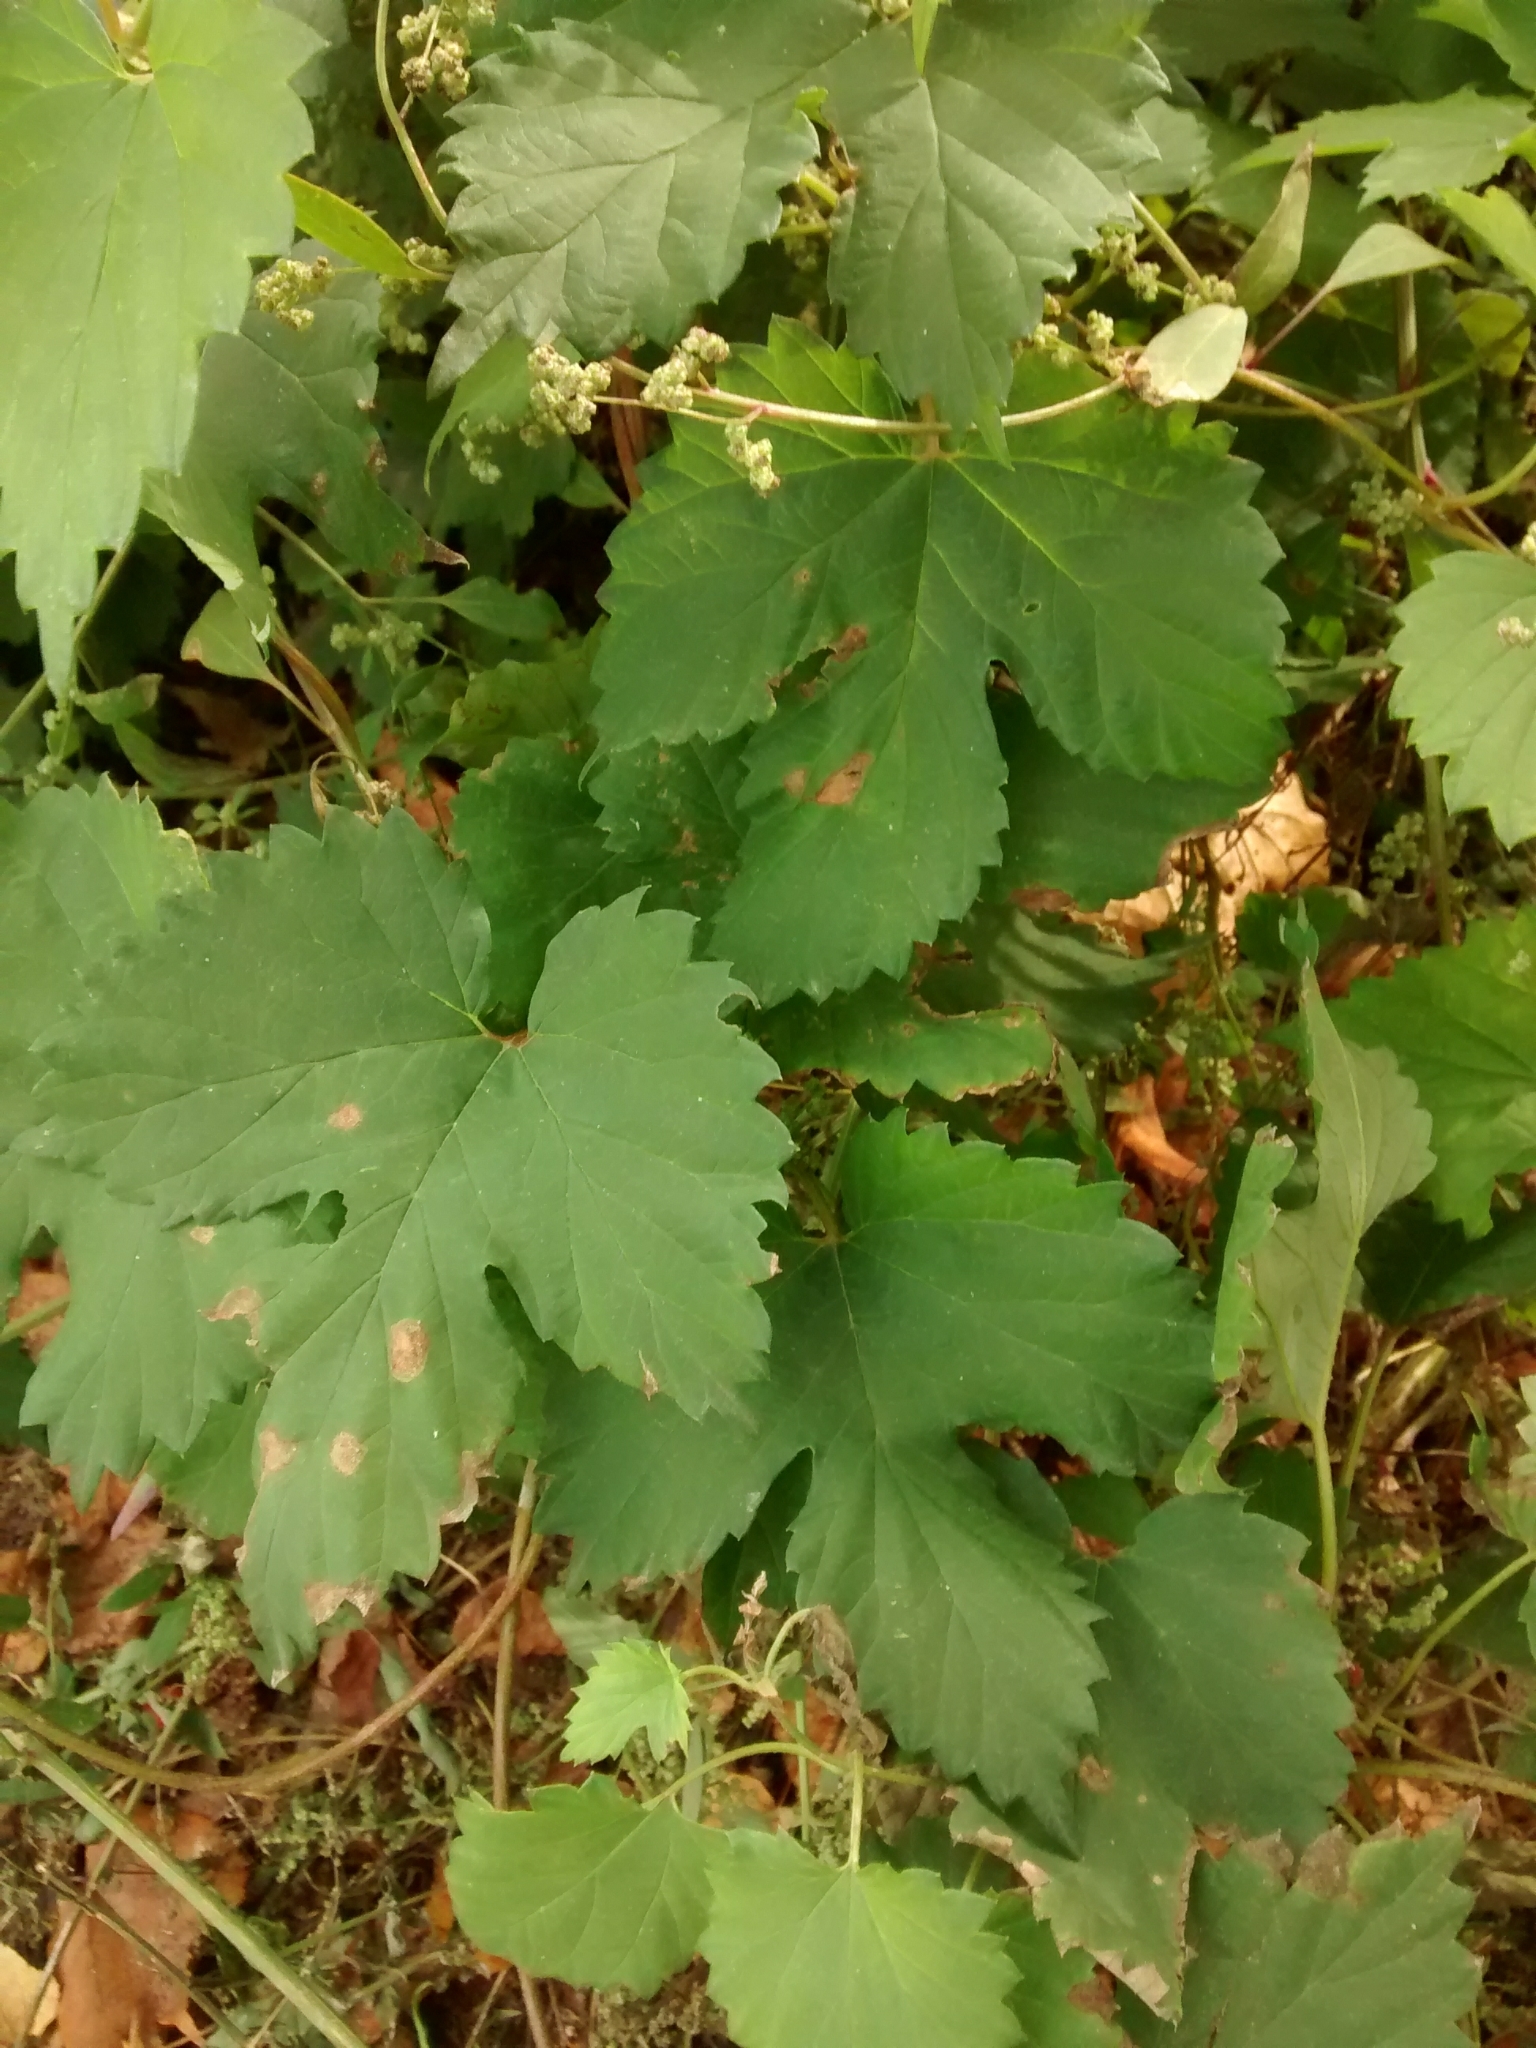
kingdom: Plantae
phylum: Tracheophyta
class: Magnoliopsida
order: Rosales
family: Cannabaceae
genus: Humulus
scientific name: Humulus lupulus
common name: Hop
